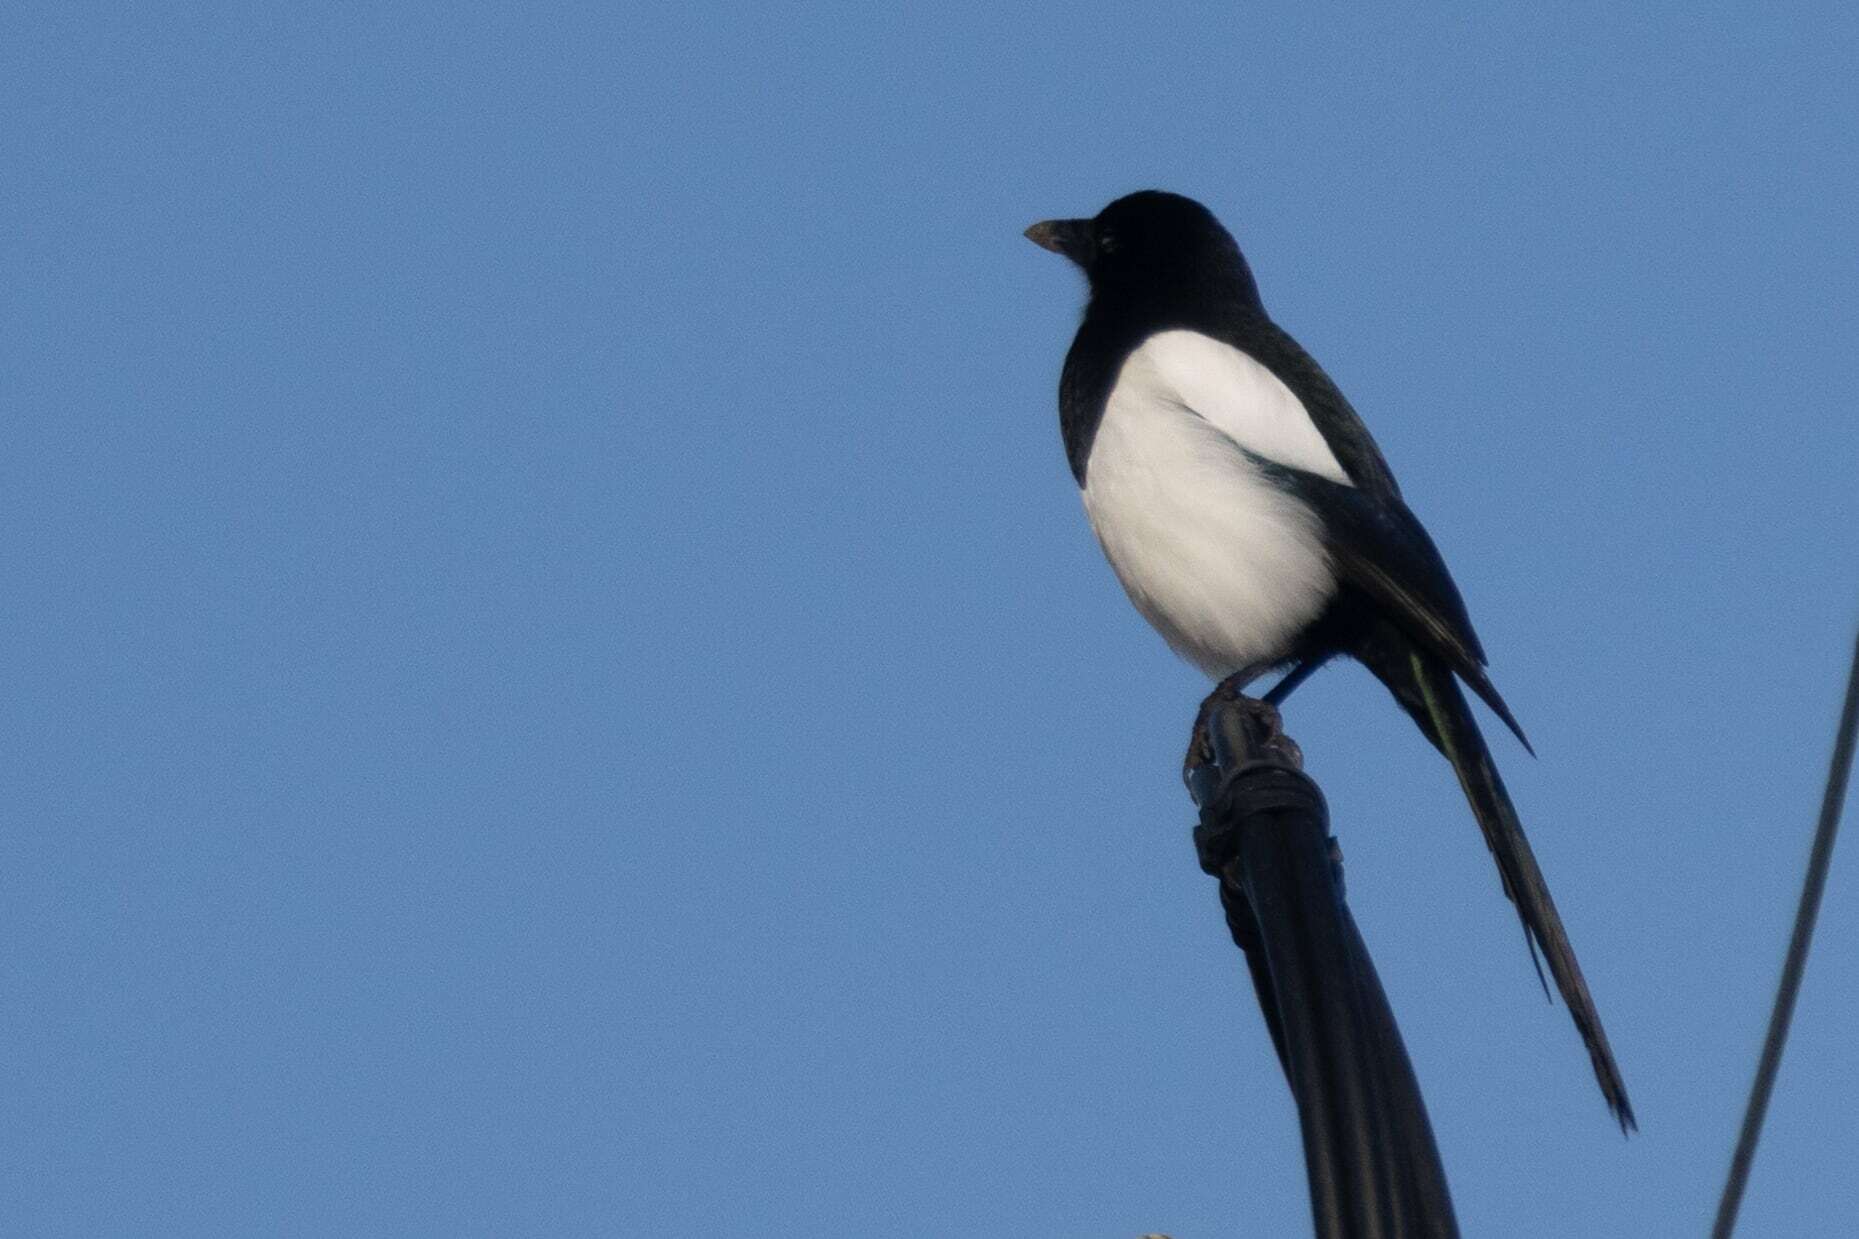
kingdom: Animalia
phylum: Chordata
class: Aves
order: Passeriformes
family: Corvidae
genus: Pica
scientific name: Pica pica
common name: Eurasian magpie
